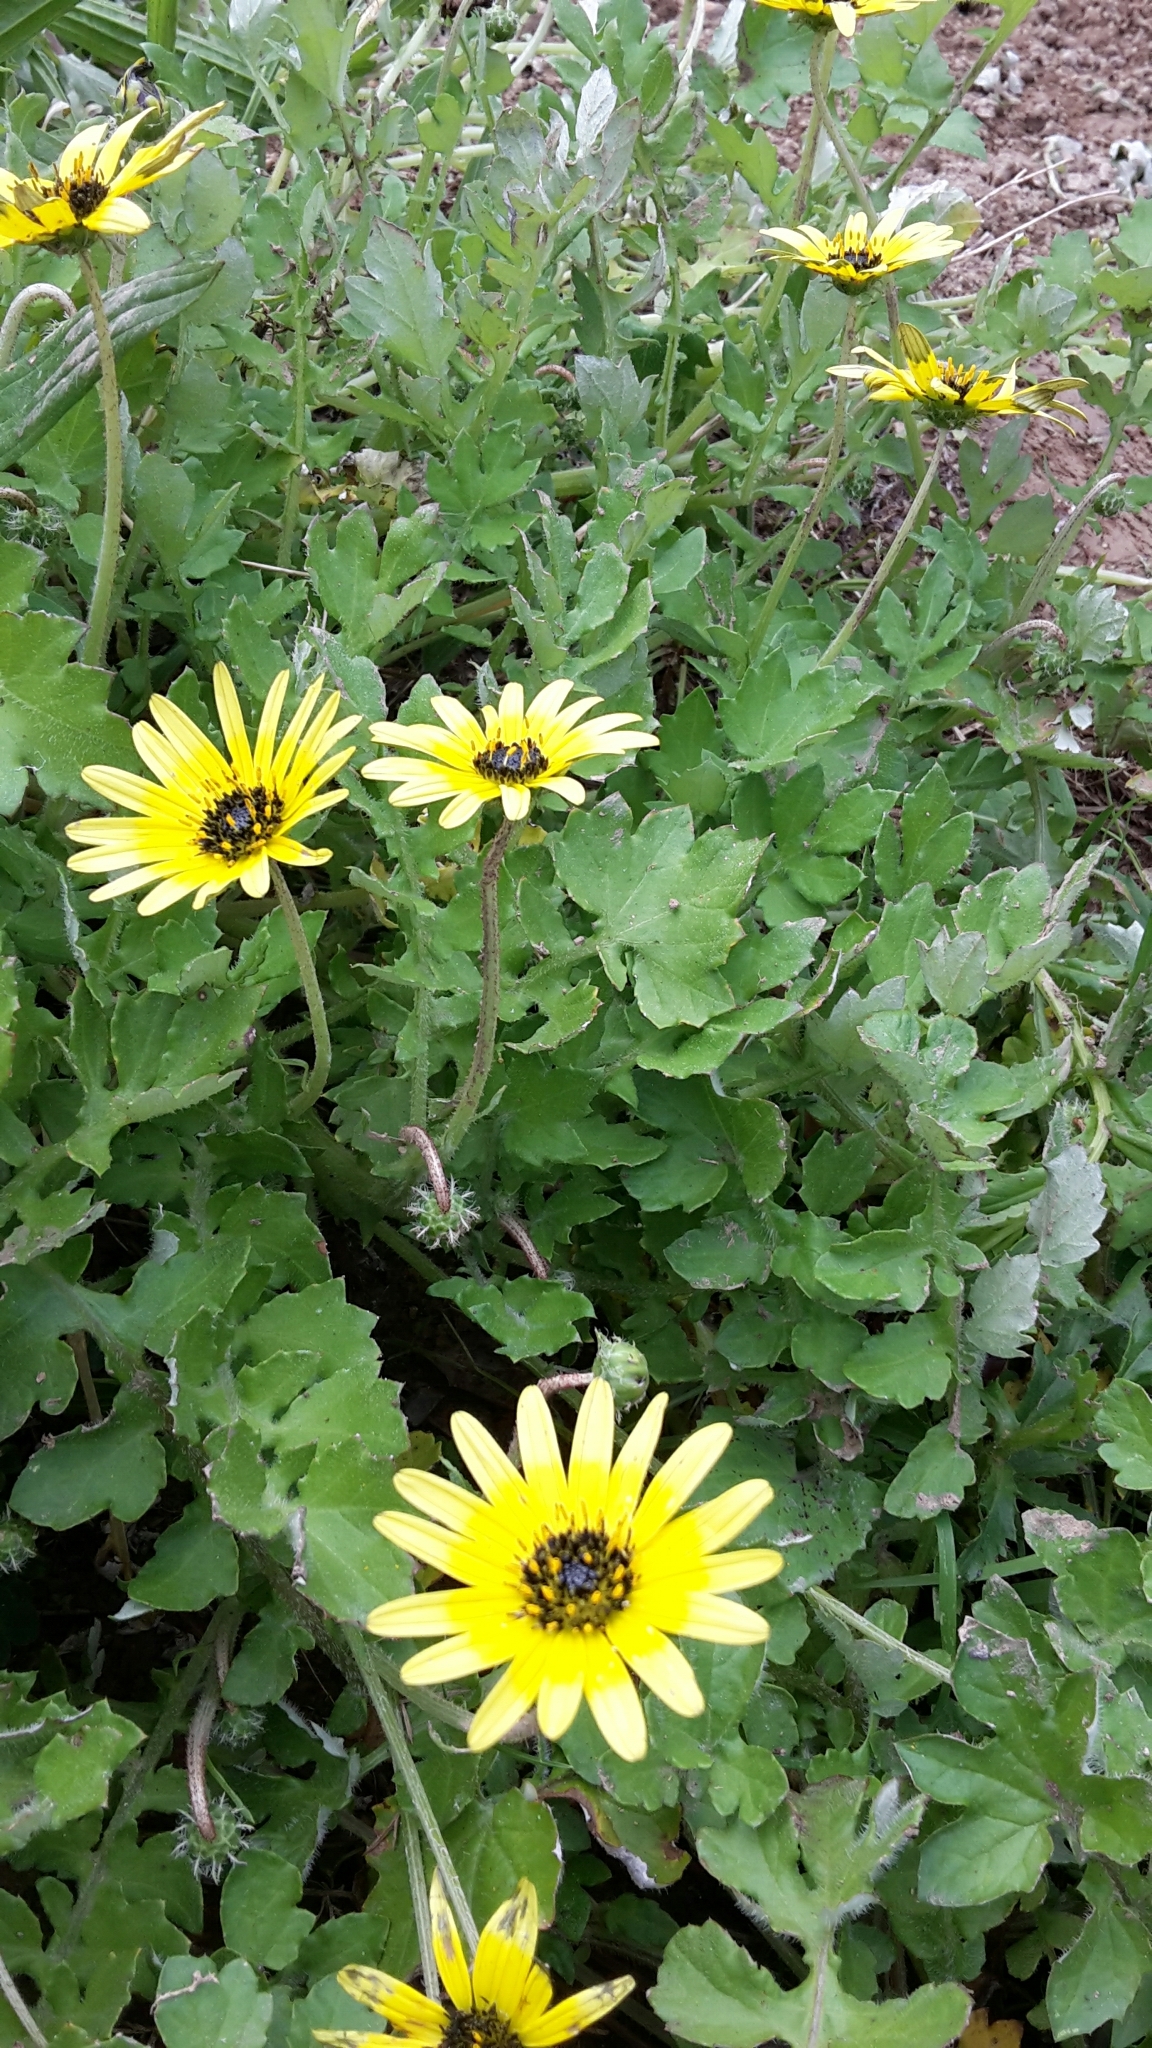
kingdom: Plantae
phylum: Tracheophyta
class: Magnoliopsida
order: Asterales
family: Asteraceae
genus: Arctotheca
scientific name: Arctotheca calendula
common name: Capeweed
